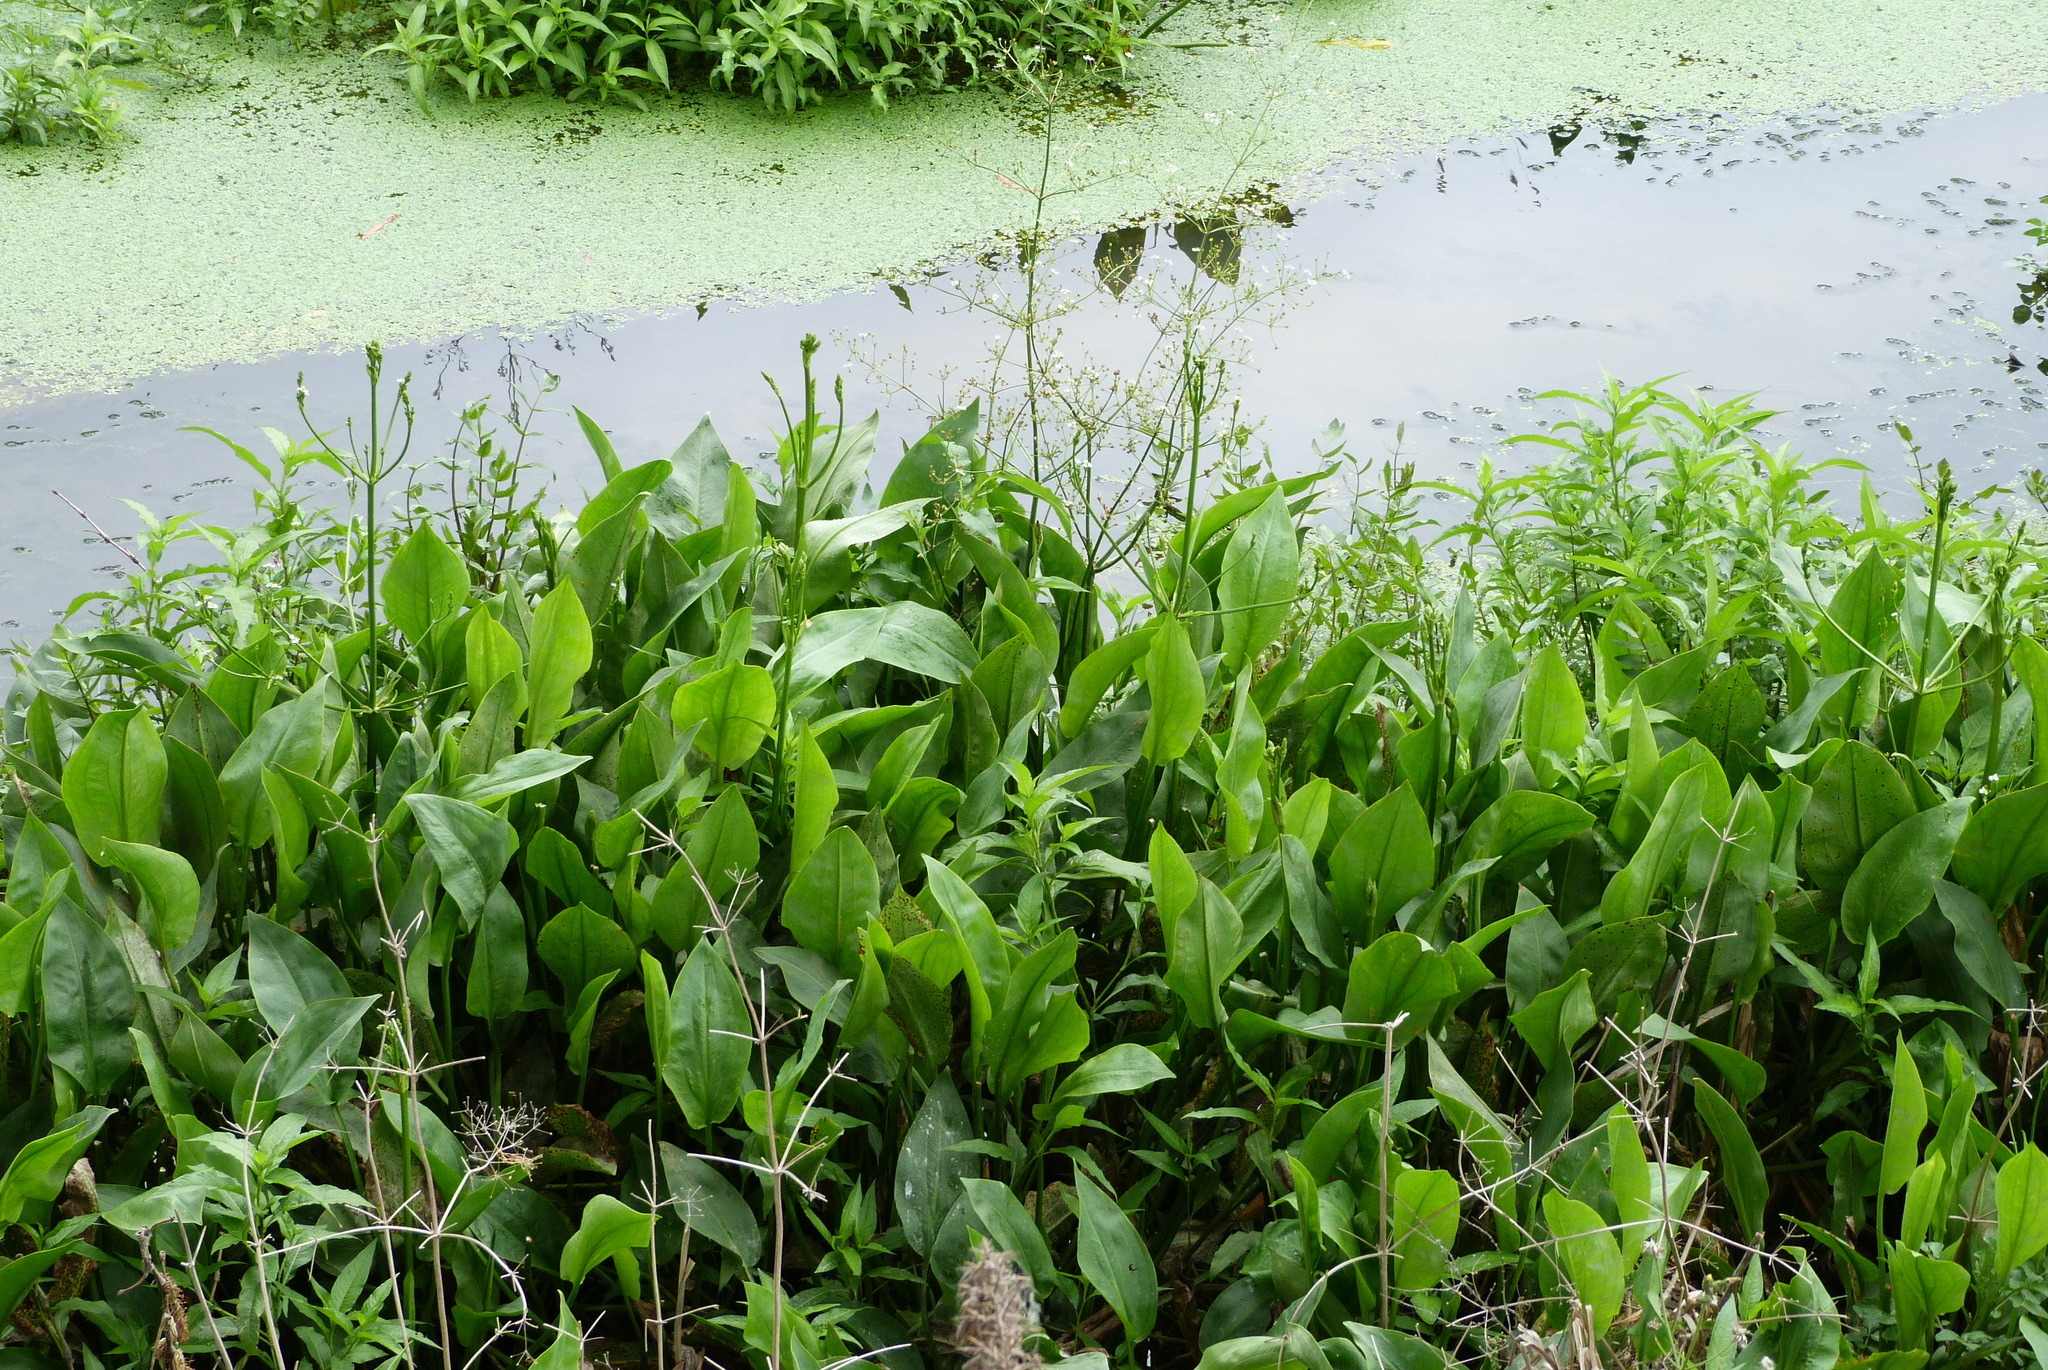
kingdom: Plantae
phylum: Tracheophyta
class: Liliopsida
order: Alismatales
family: Alismataceae
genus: Alisma
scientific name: Alisma plantago-aquatica
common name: Water-plantain
